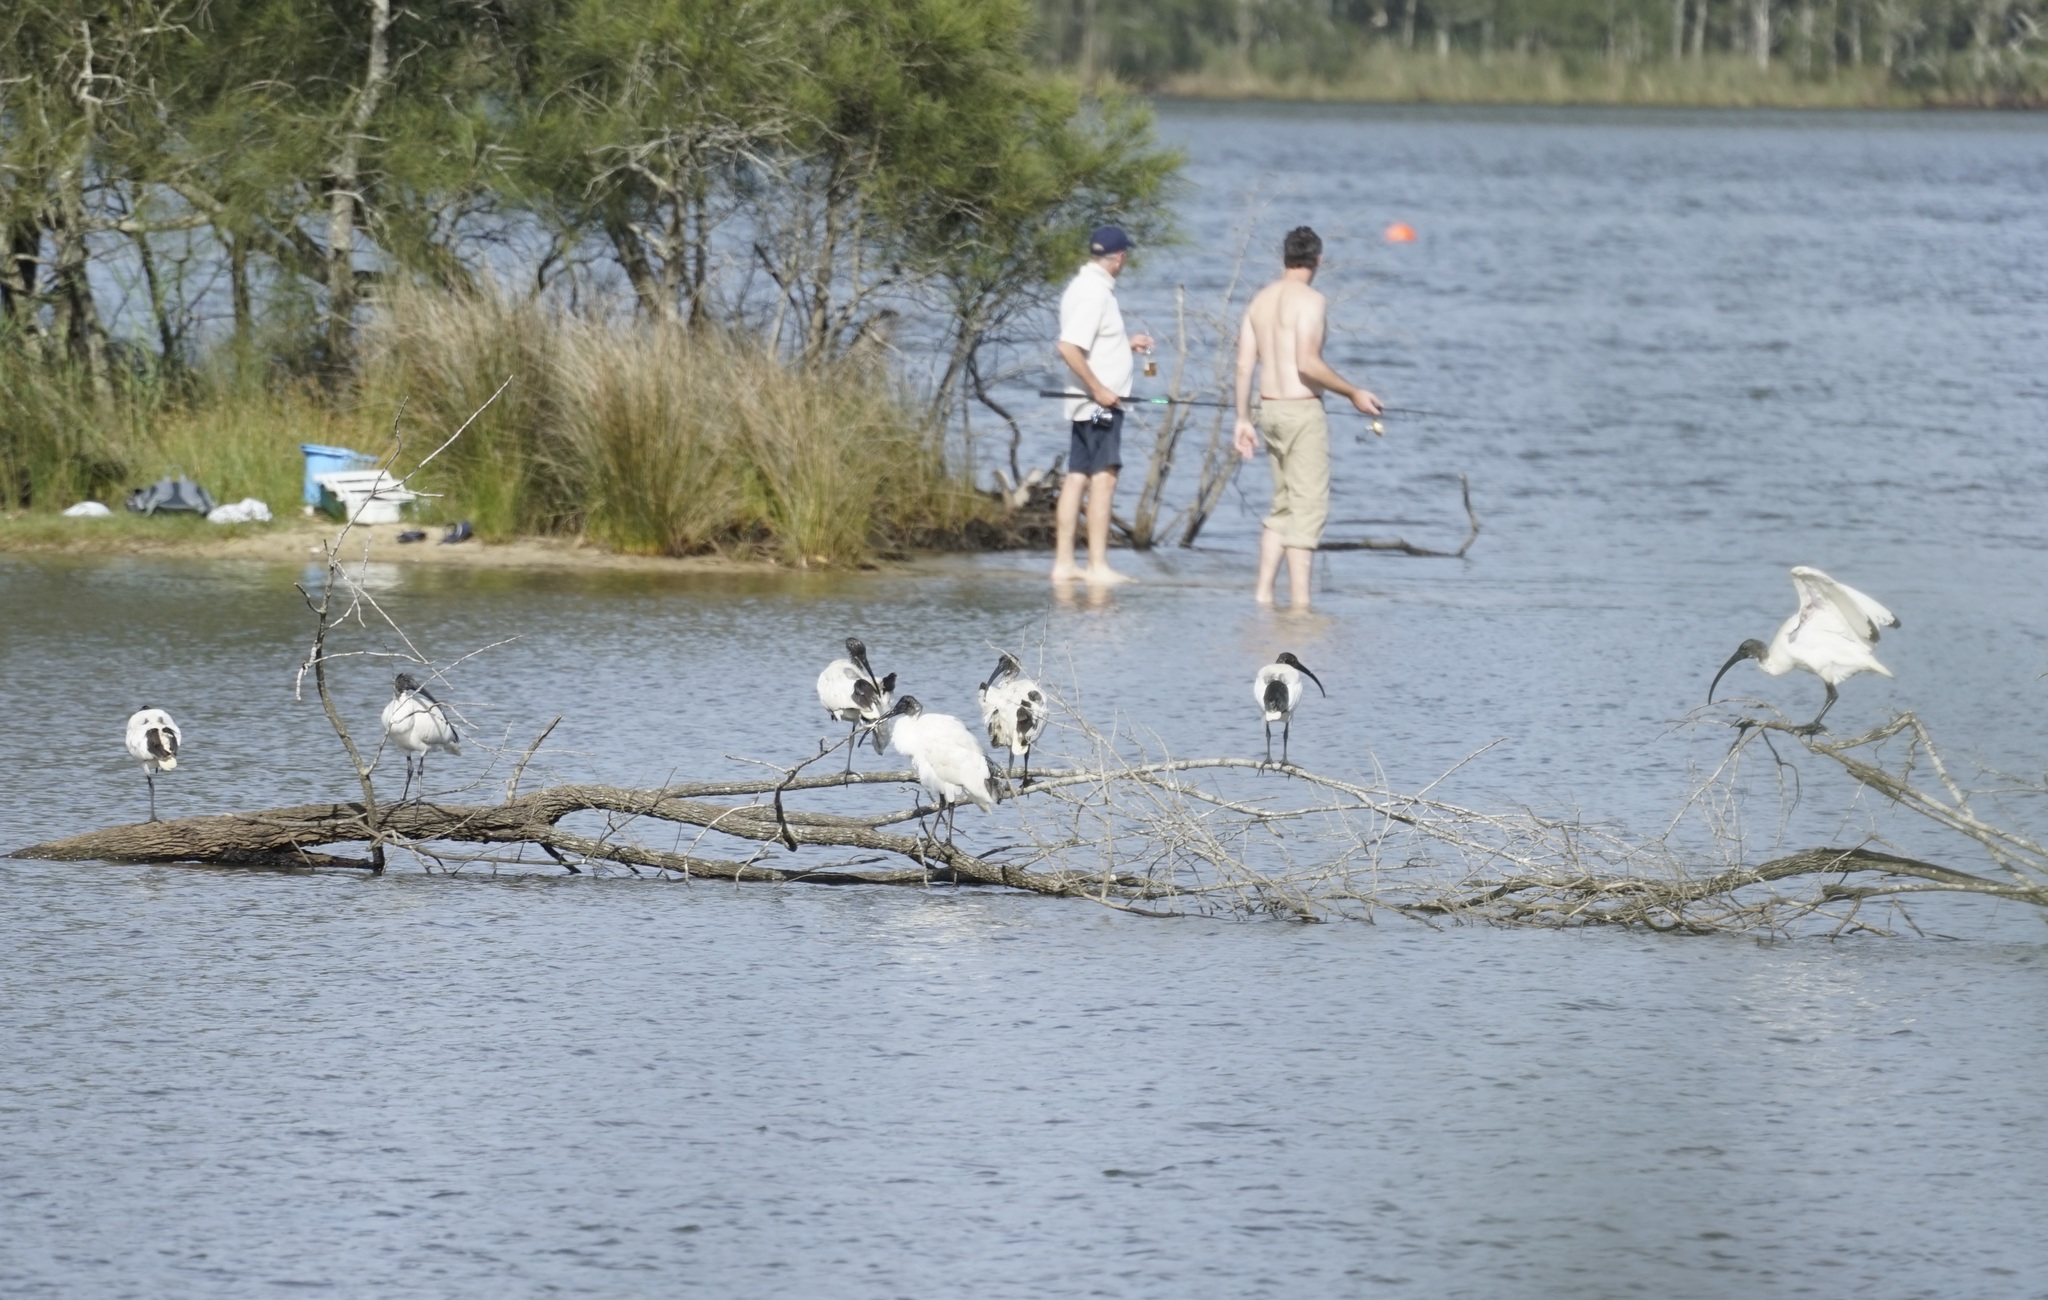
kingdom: Animalia
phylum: Chordata
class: Aves
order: Pelecaniformes
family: Threskiornithidae
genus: Threskiornis
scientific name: Threskiornis molucca
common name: Australian white ibis
